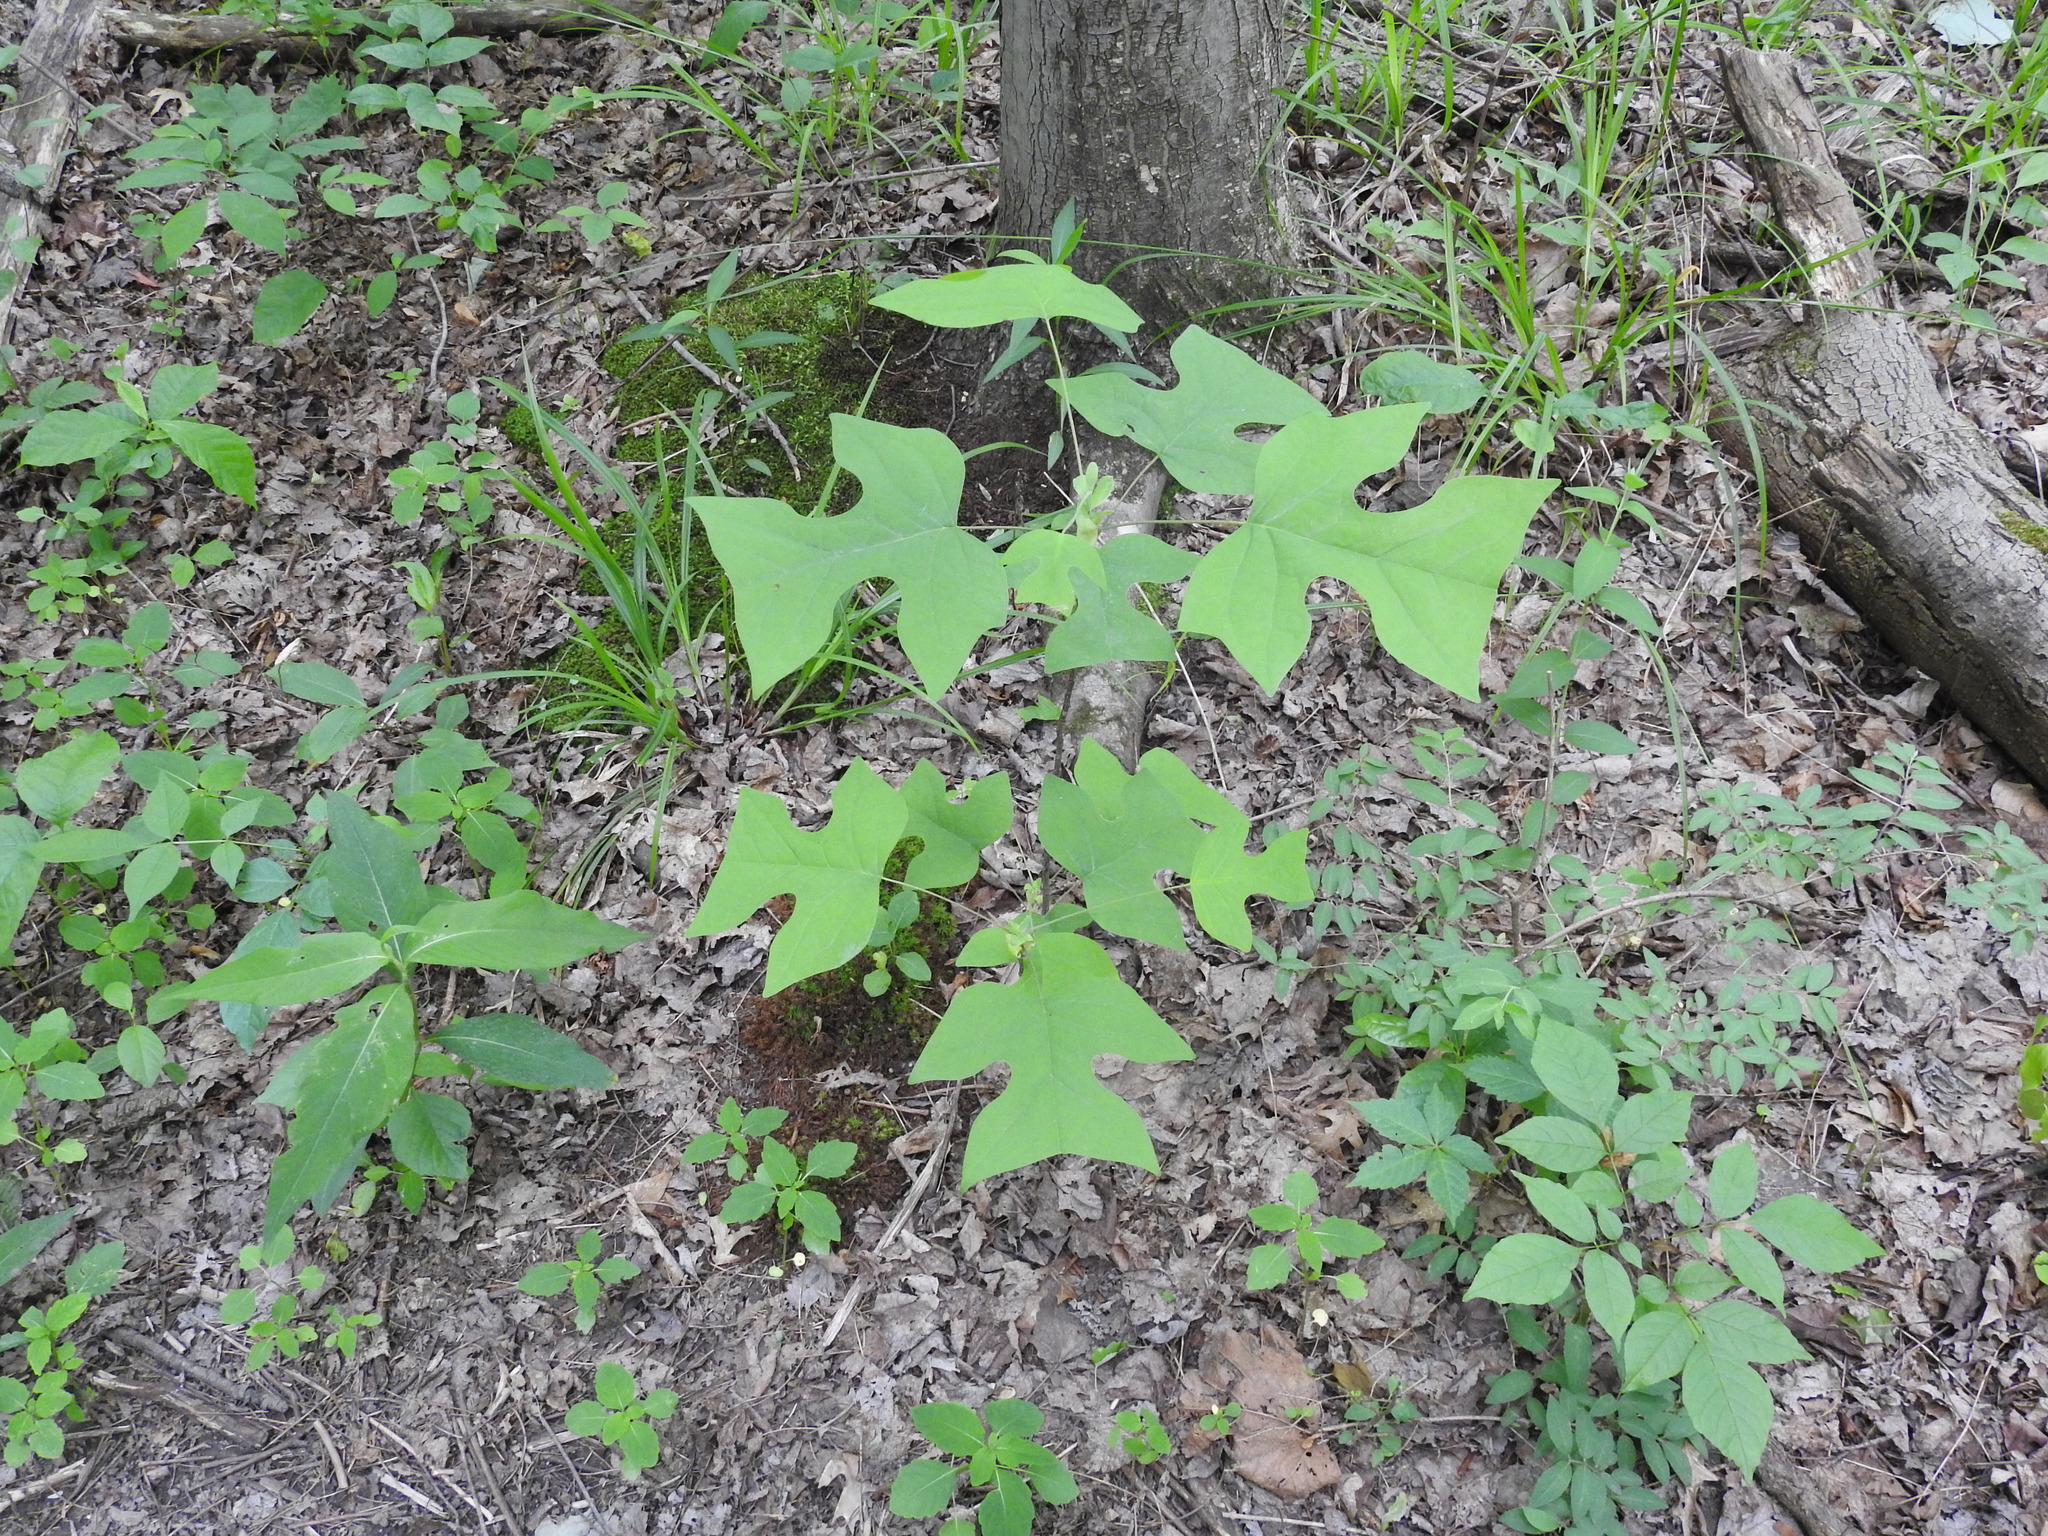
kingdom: Plantae
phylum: Tracheophyta
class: Magnoliopsida
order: Magnoliales
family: Magnoliaceae
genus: Liriodendron
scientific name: Liriodendron tulipifera
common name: Tulip tree
